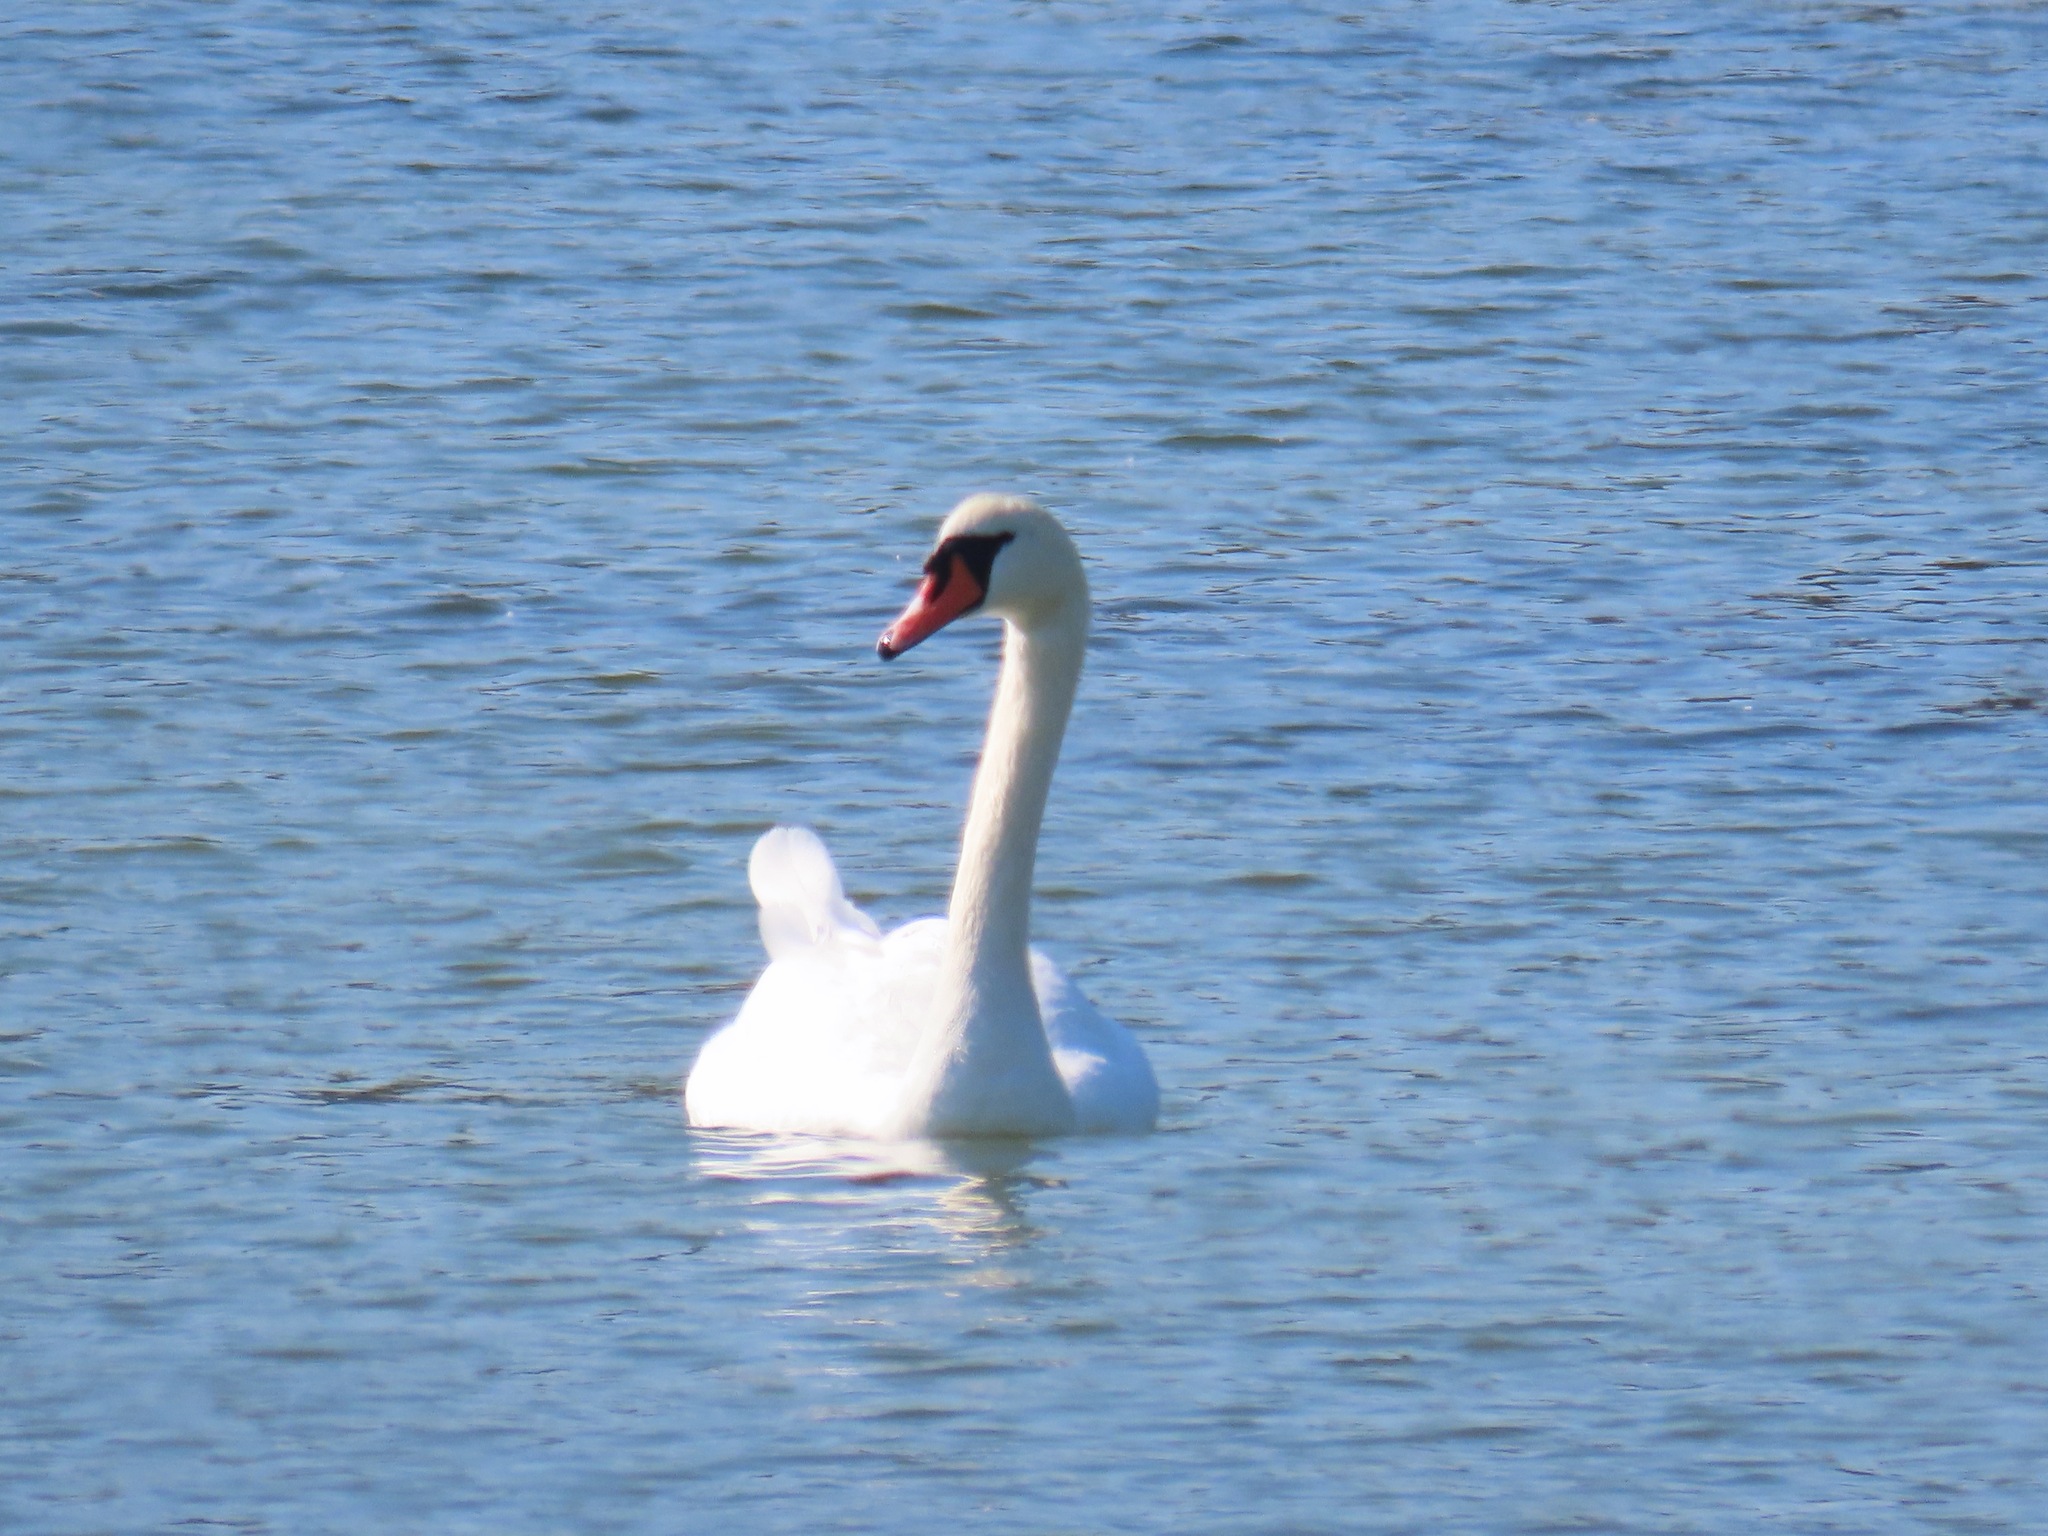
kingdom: Animalia
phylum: Chordata
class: Aves
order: Anseriformes
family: Anatidae
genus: Cygnus
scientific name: Cygnus olor
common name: Mute swan
